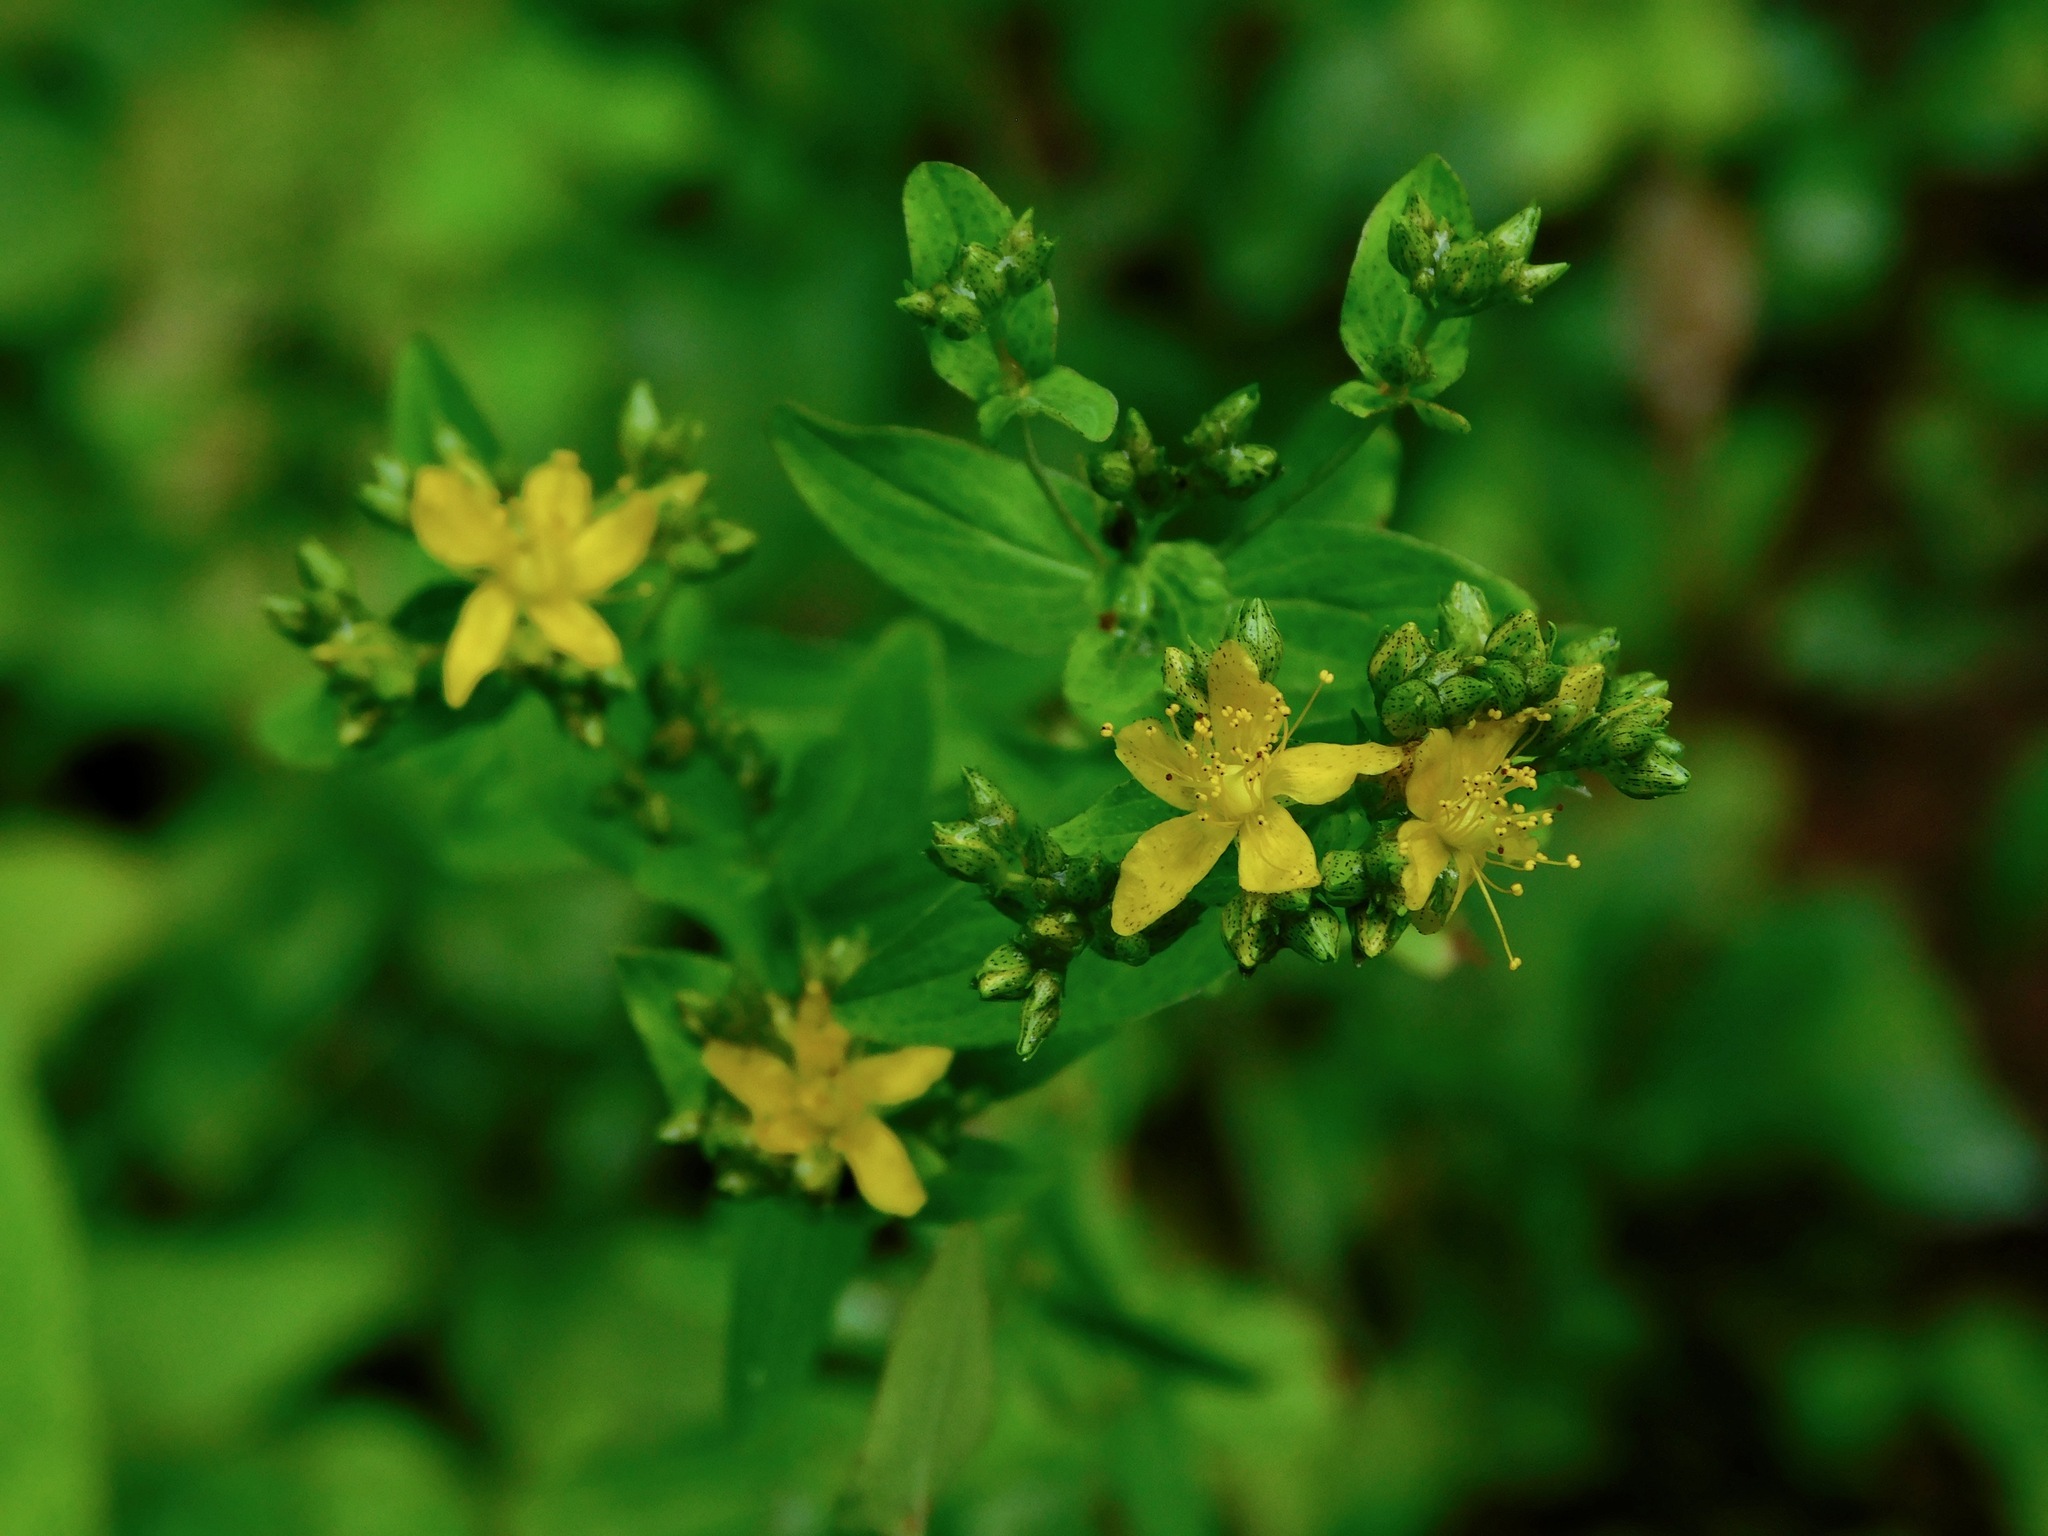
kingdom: Plantae
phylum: Tracheophyta
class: Magnoliopsida
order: Malpighiales
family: Hypericaceae
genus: Hypericum
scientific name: Hypericum punctatum
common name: Spotted st. john's-wort
